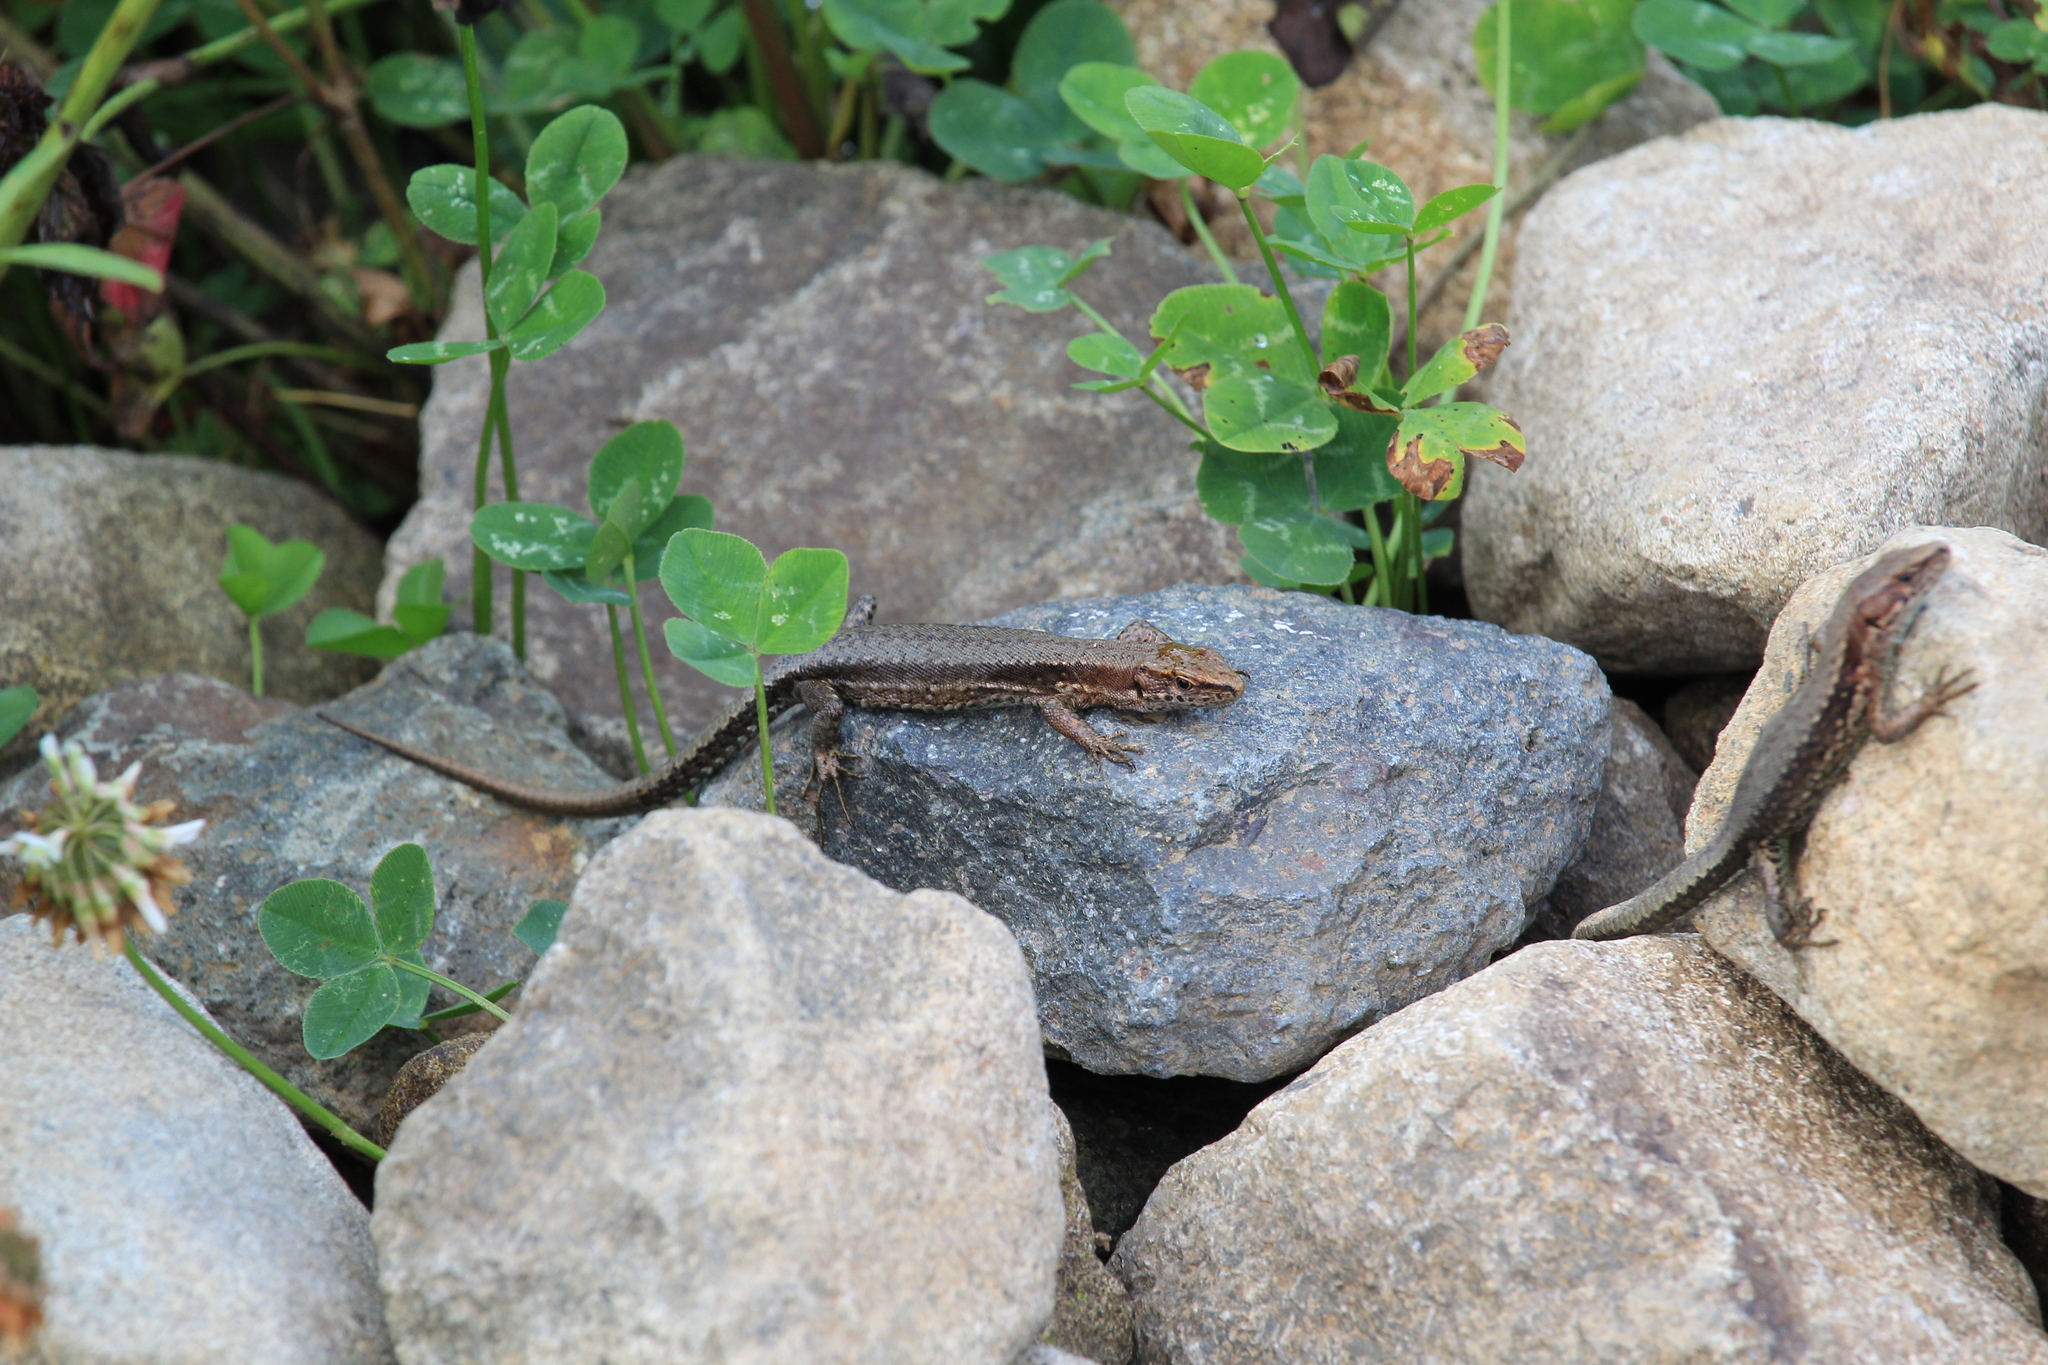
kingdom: Animalia
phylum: Chordata
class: Squamata
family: Lacertidae
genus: Darevskia
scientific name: Darevskia derjugini
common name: Derjugin's lizard
